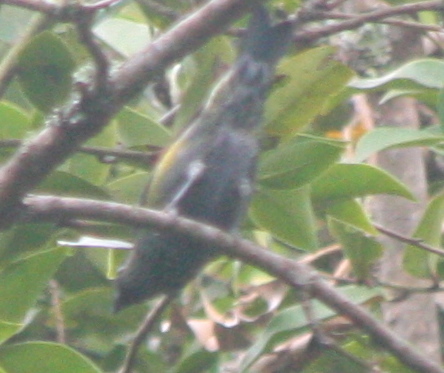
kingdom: Animalia
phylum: Chordata
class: Aves
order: Passeriformes
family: Thraupidae
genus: Stilpnia
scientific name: Stilpnia heinei
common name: Black-capped tanager
